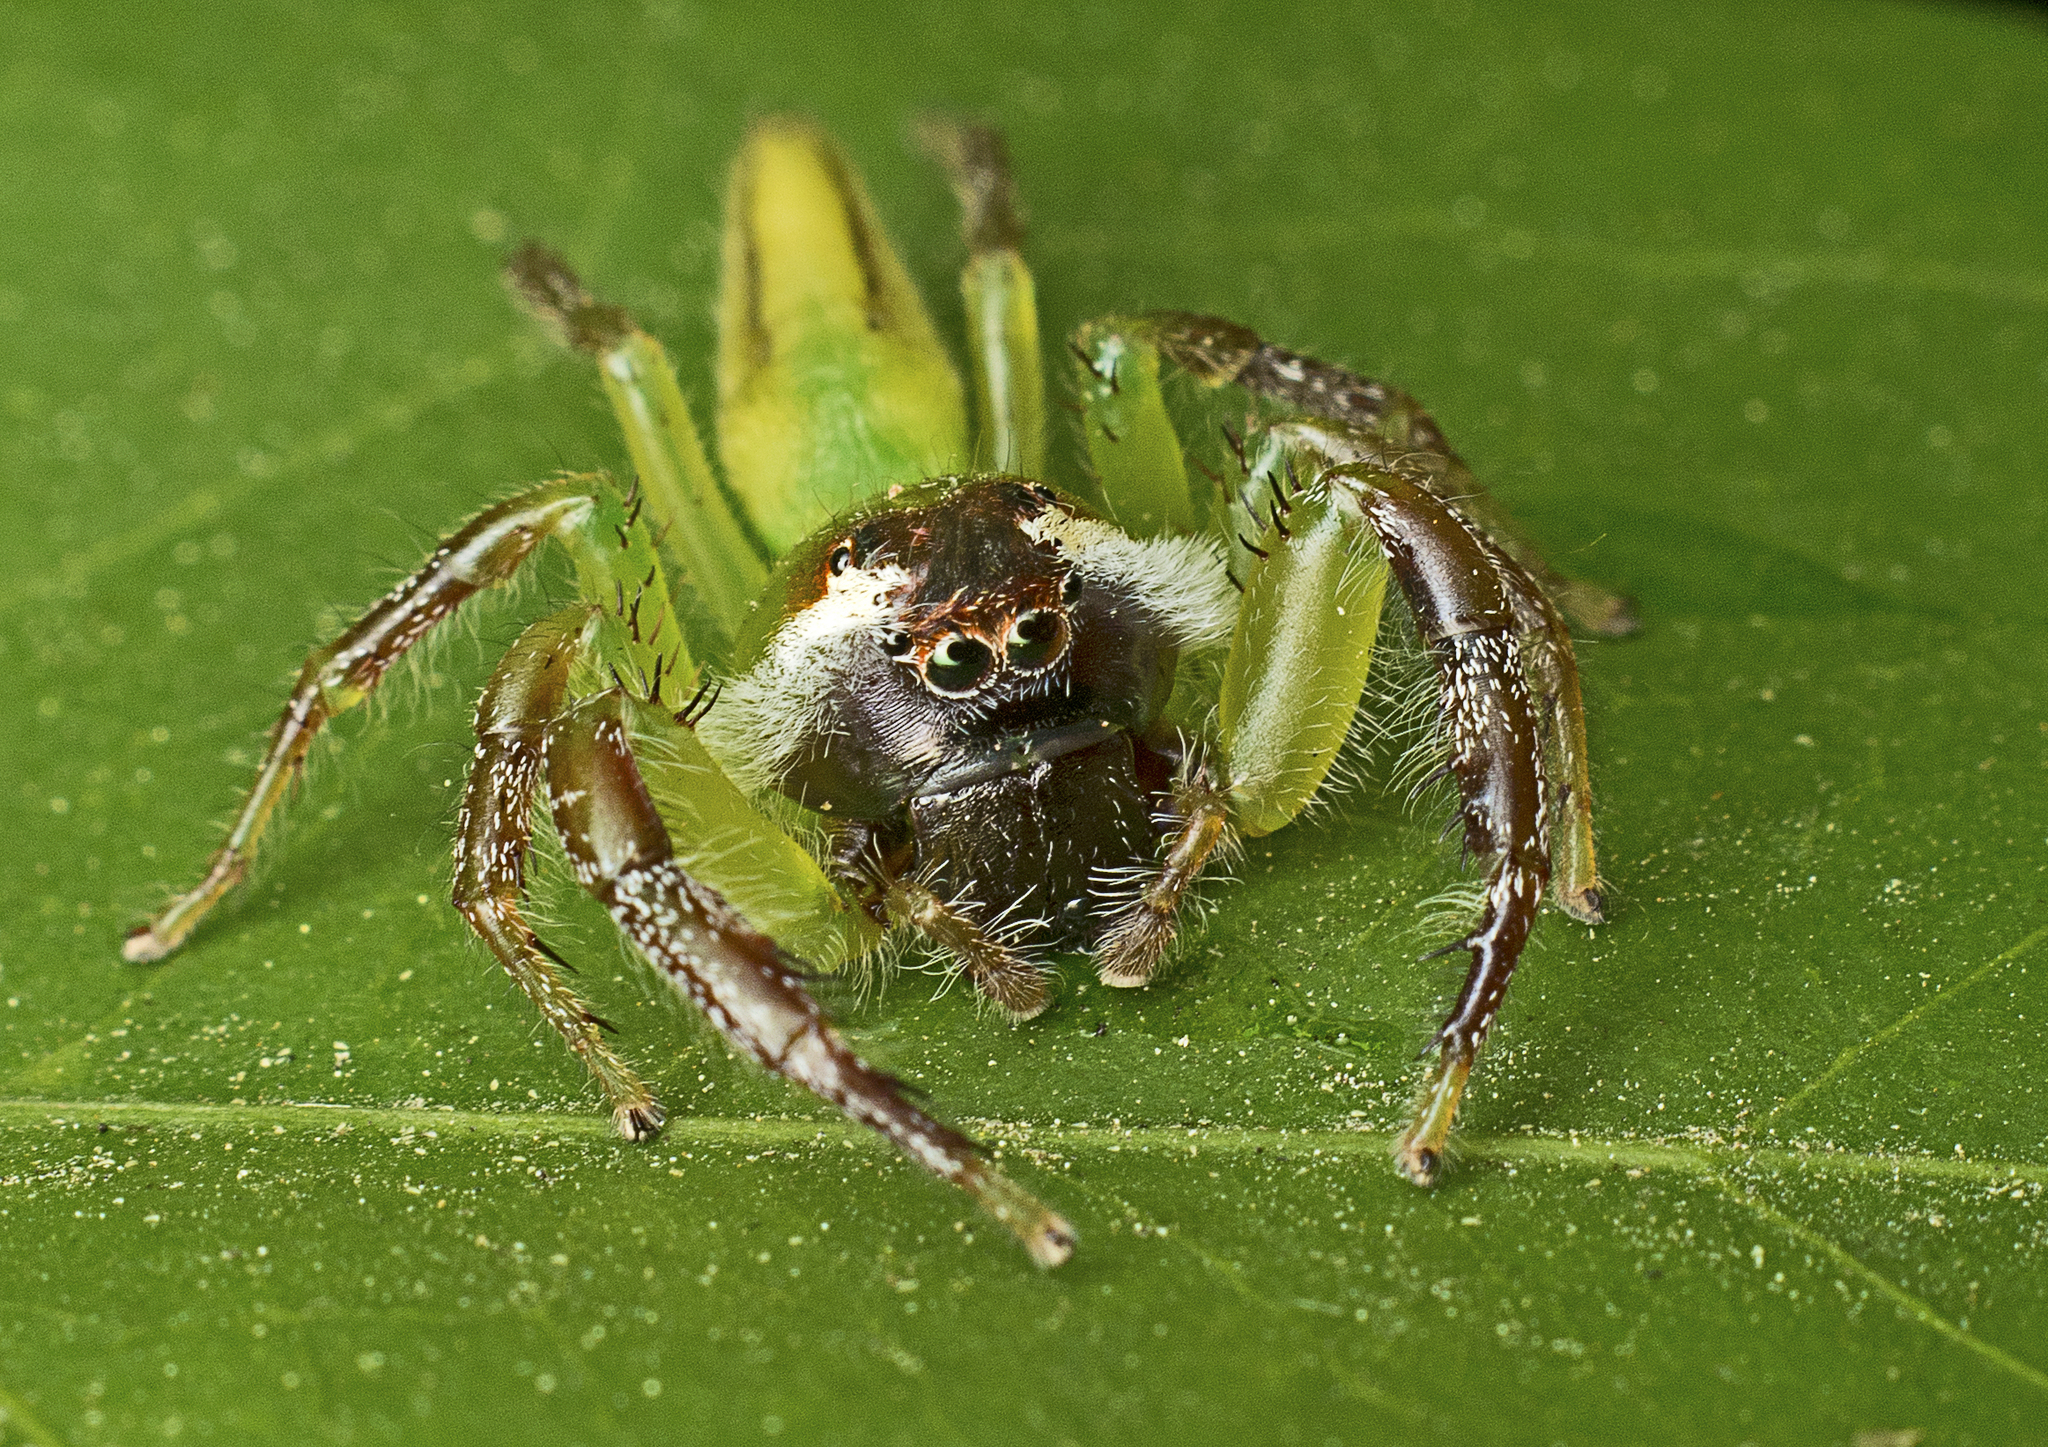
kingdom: Animalia
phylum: Arthropoda
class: Arachnida
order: Araneae
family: Salticidae
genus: Mopsus
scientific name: Mopsus mormon
